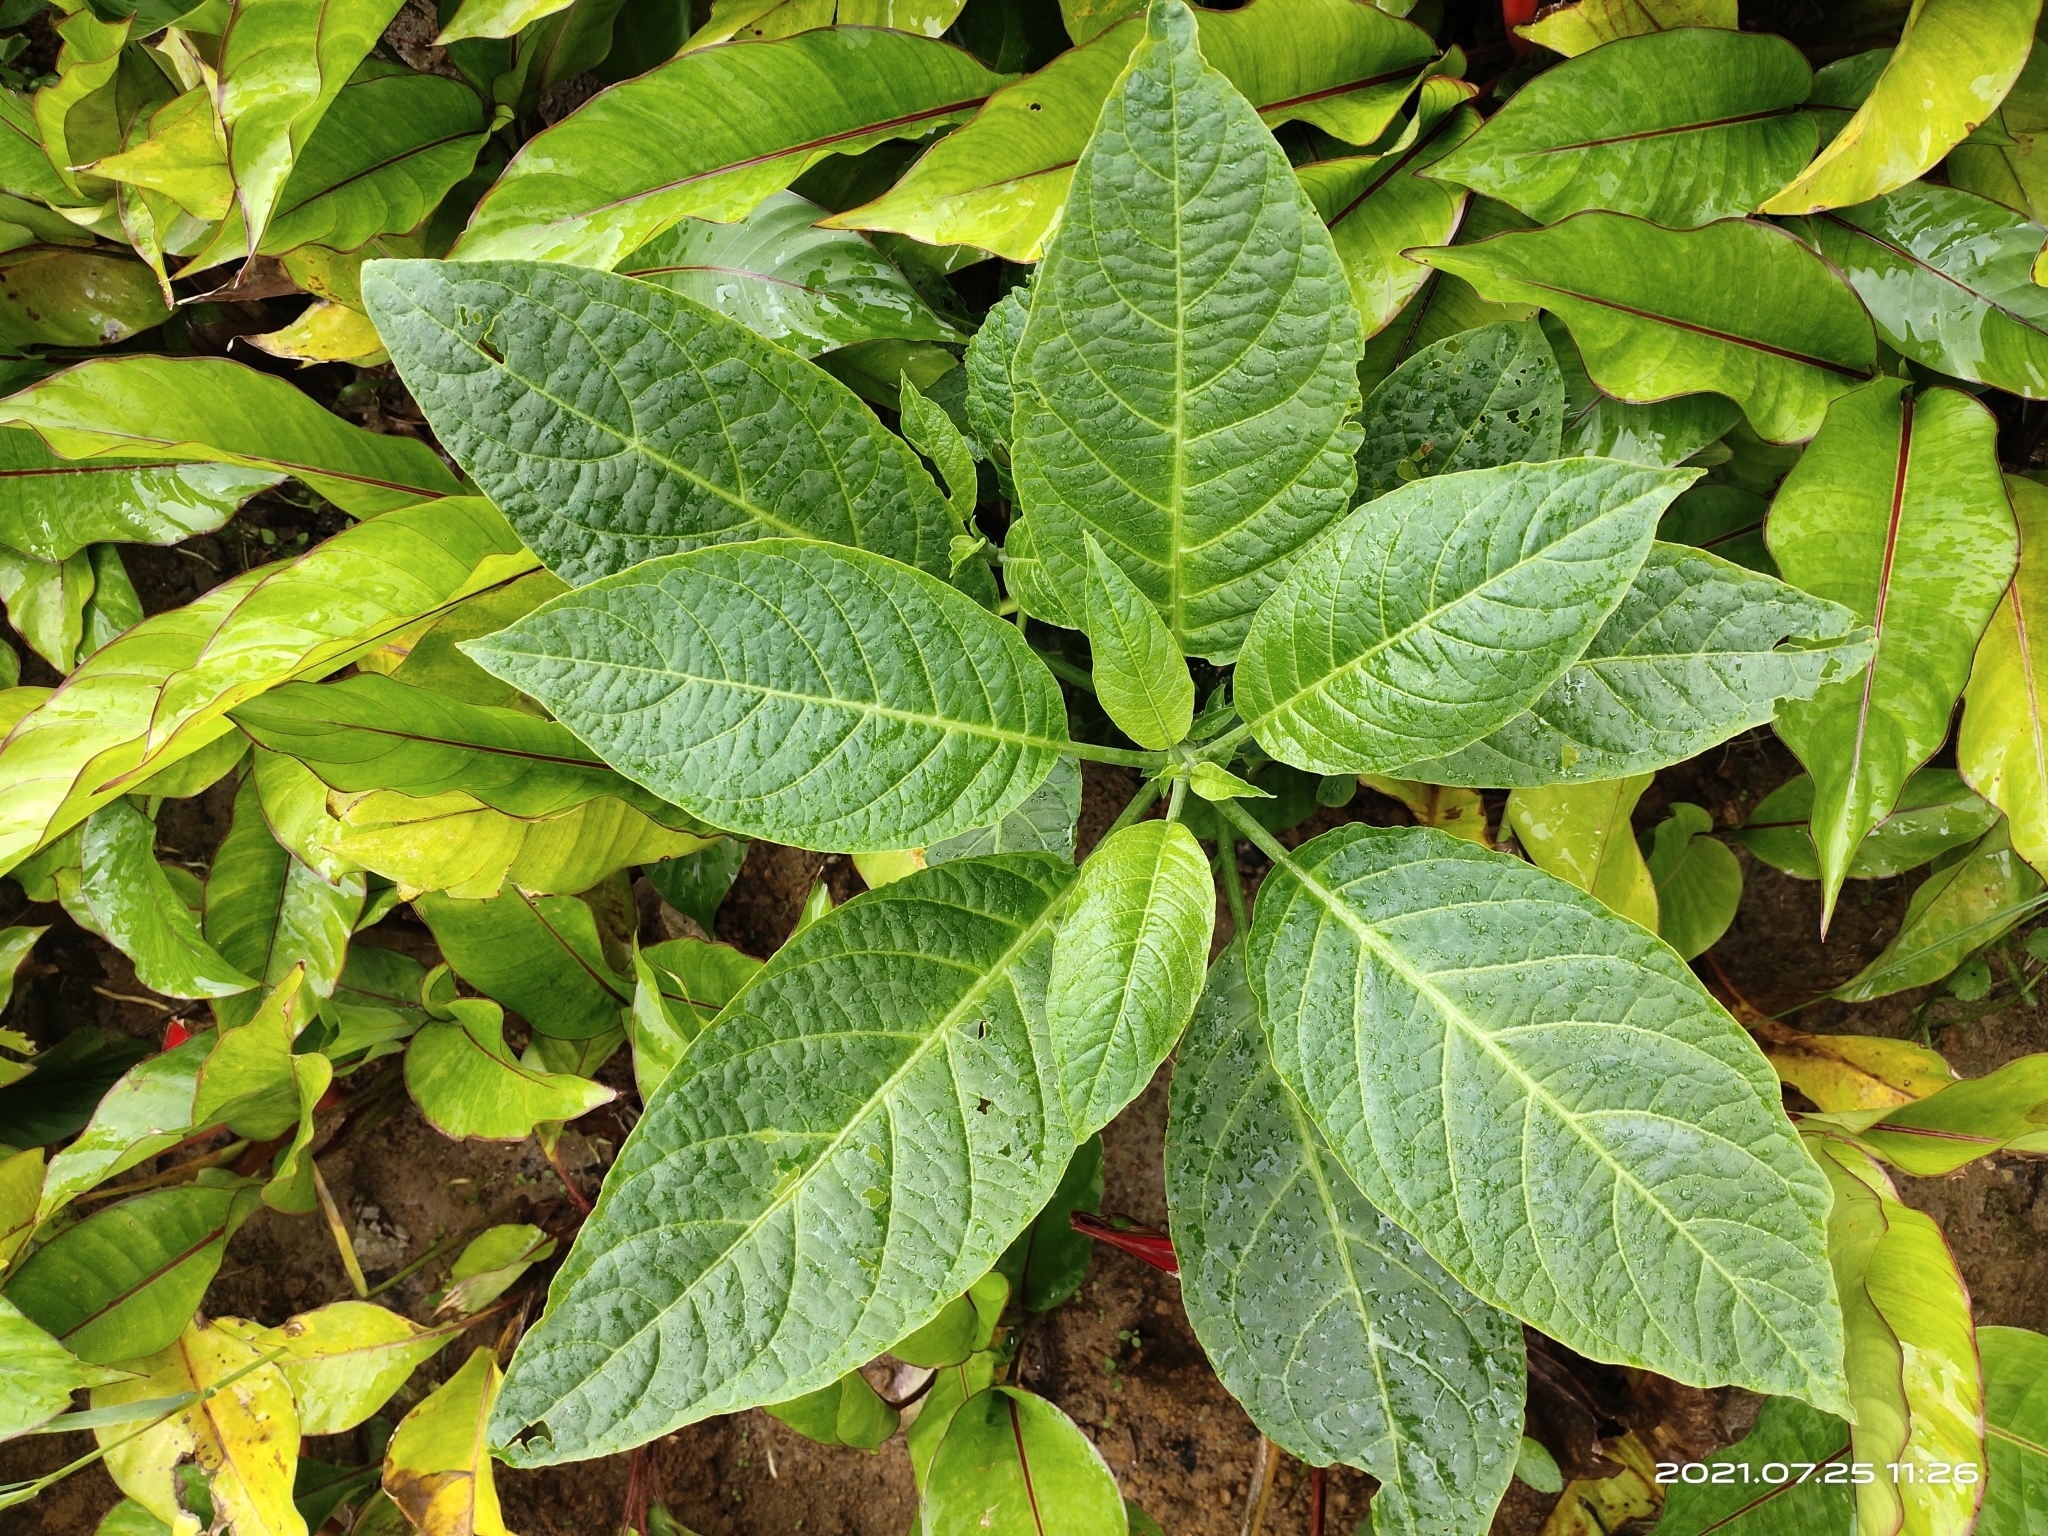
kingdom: Plantae
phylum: Tracheophyta
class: Magnoliopsida
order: Solanales
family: Solanaceae
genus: Brugmansia
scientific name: Brugmansia suaveolens
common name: Angel's tears
